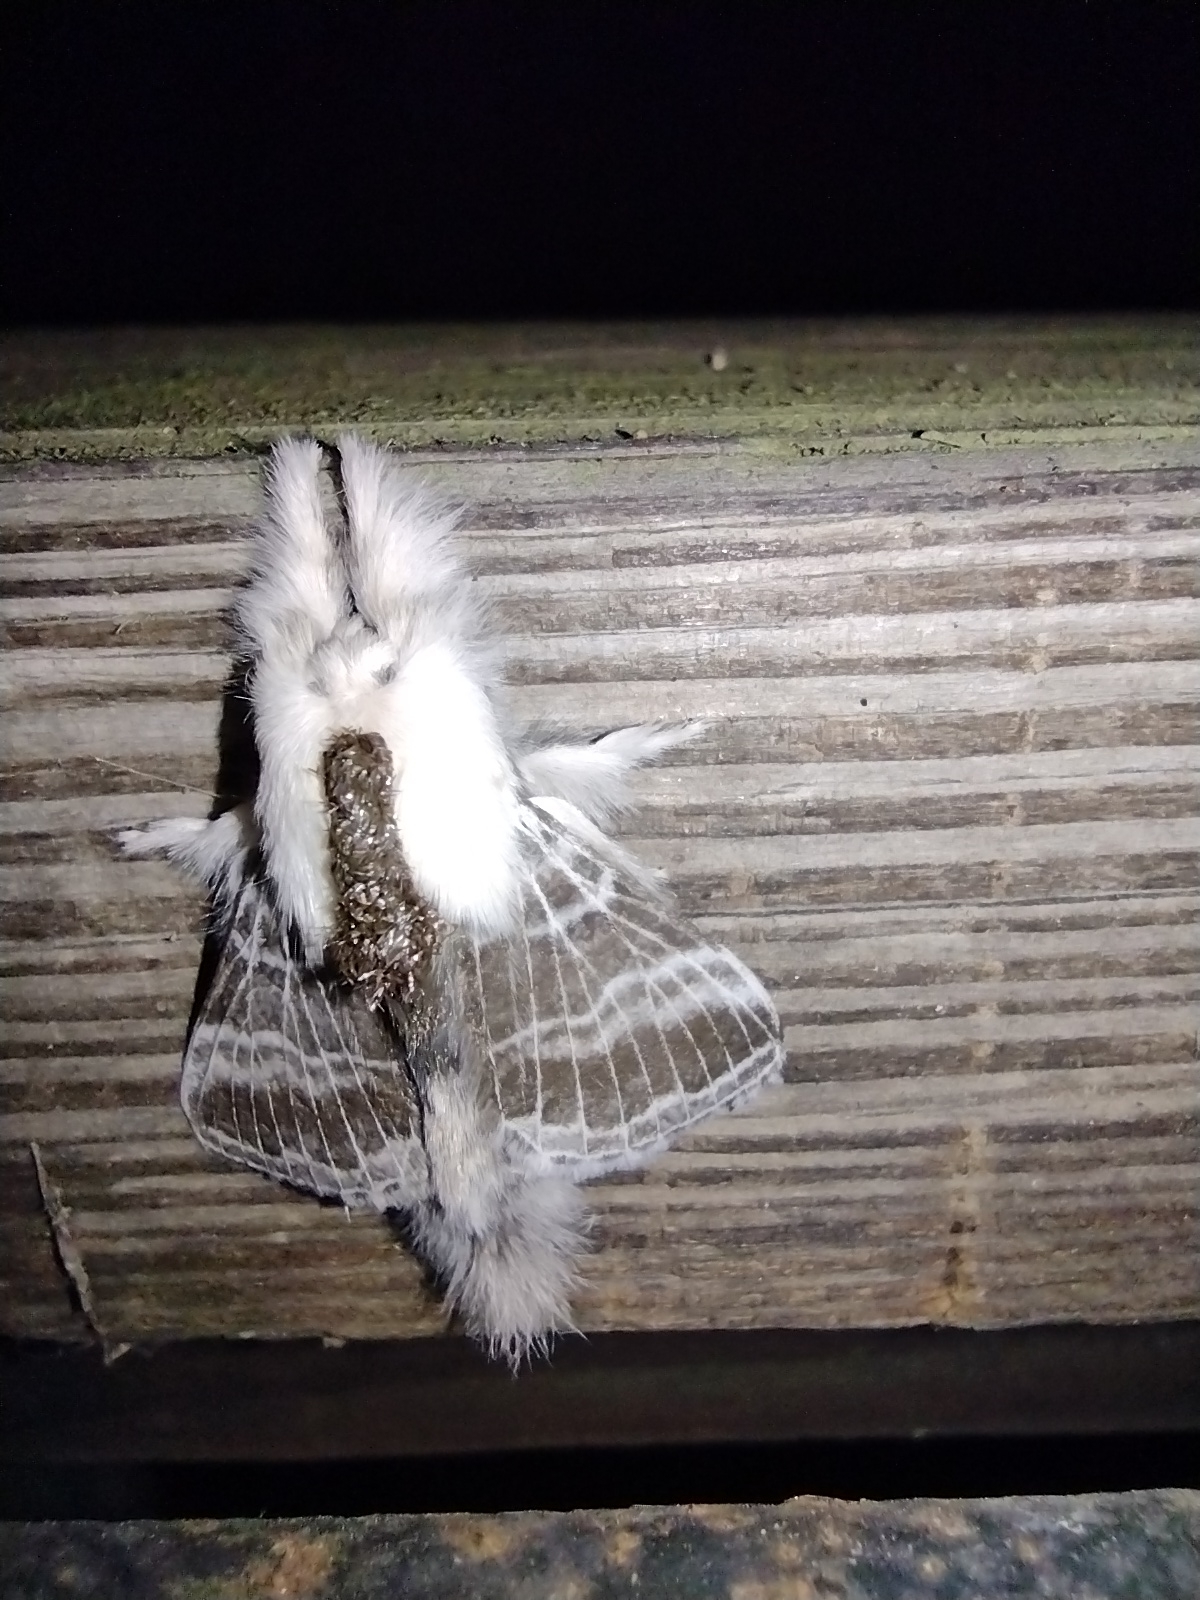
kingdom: Animalia
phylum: Arthropoda
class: Insecta
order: Lepidoptera
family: Lasiocampidae
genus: Tolype
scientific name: Tolype velleda
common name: Large tolype moth
